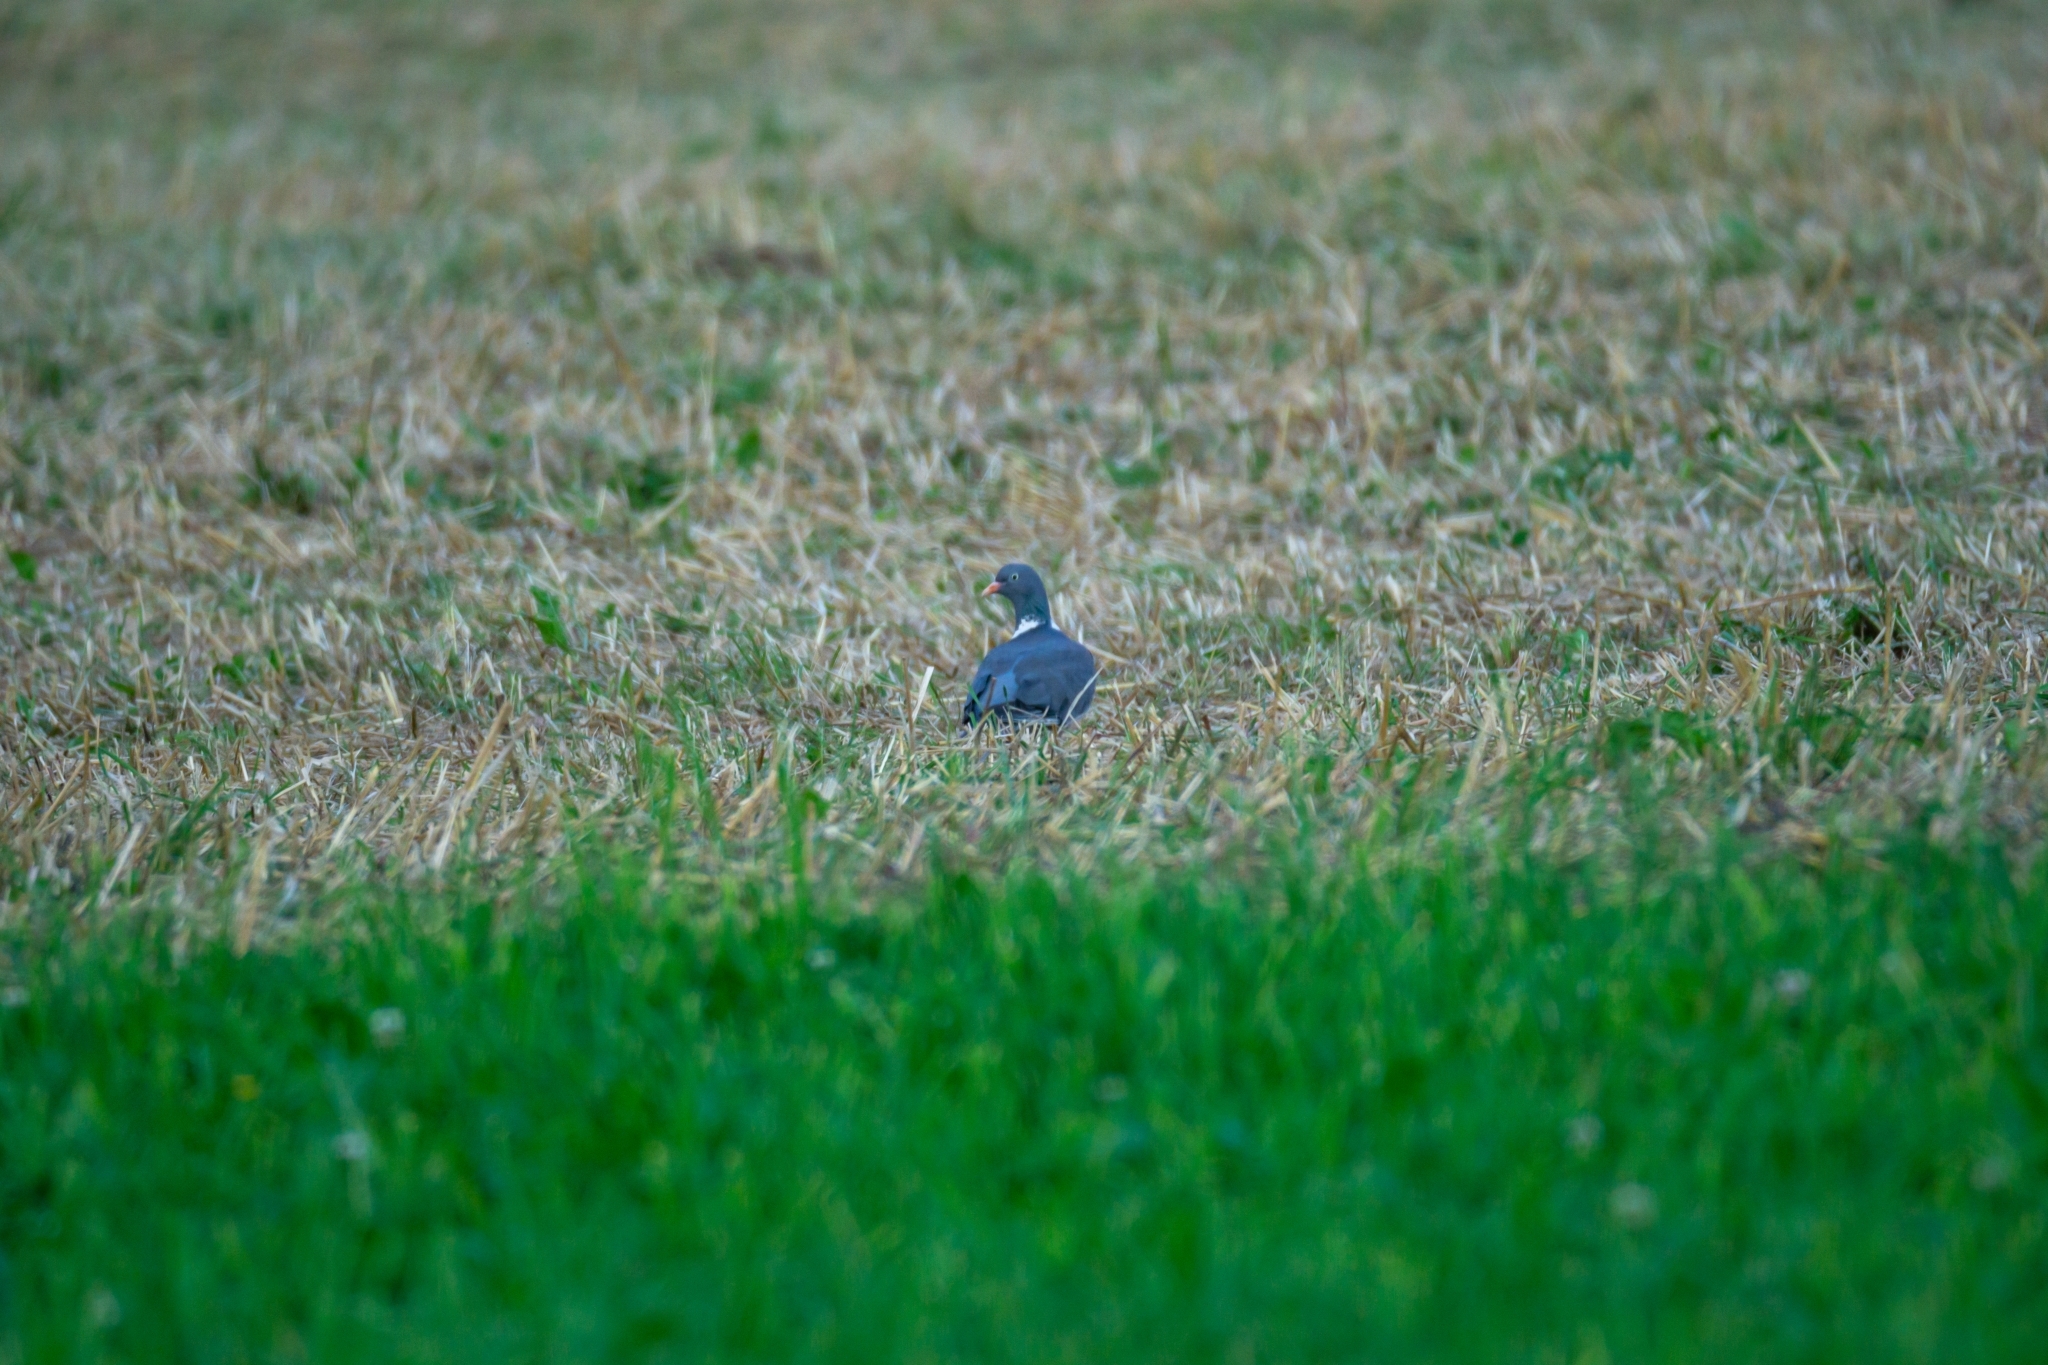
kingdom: Animalia
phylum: Chordata
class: Aves
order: Columbiformes
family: Columbidae
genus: Columba
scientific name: Columba palumbus
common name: Common wood pigeon
